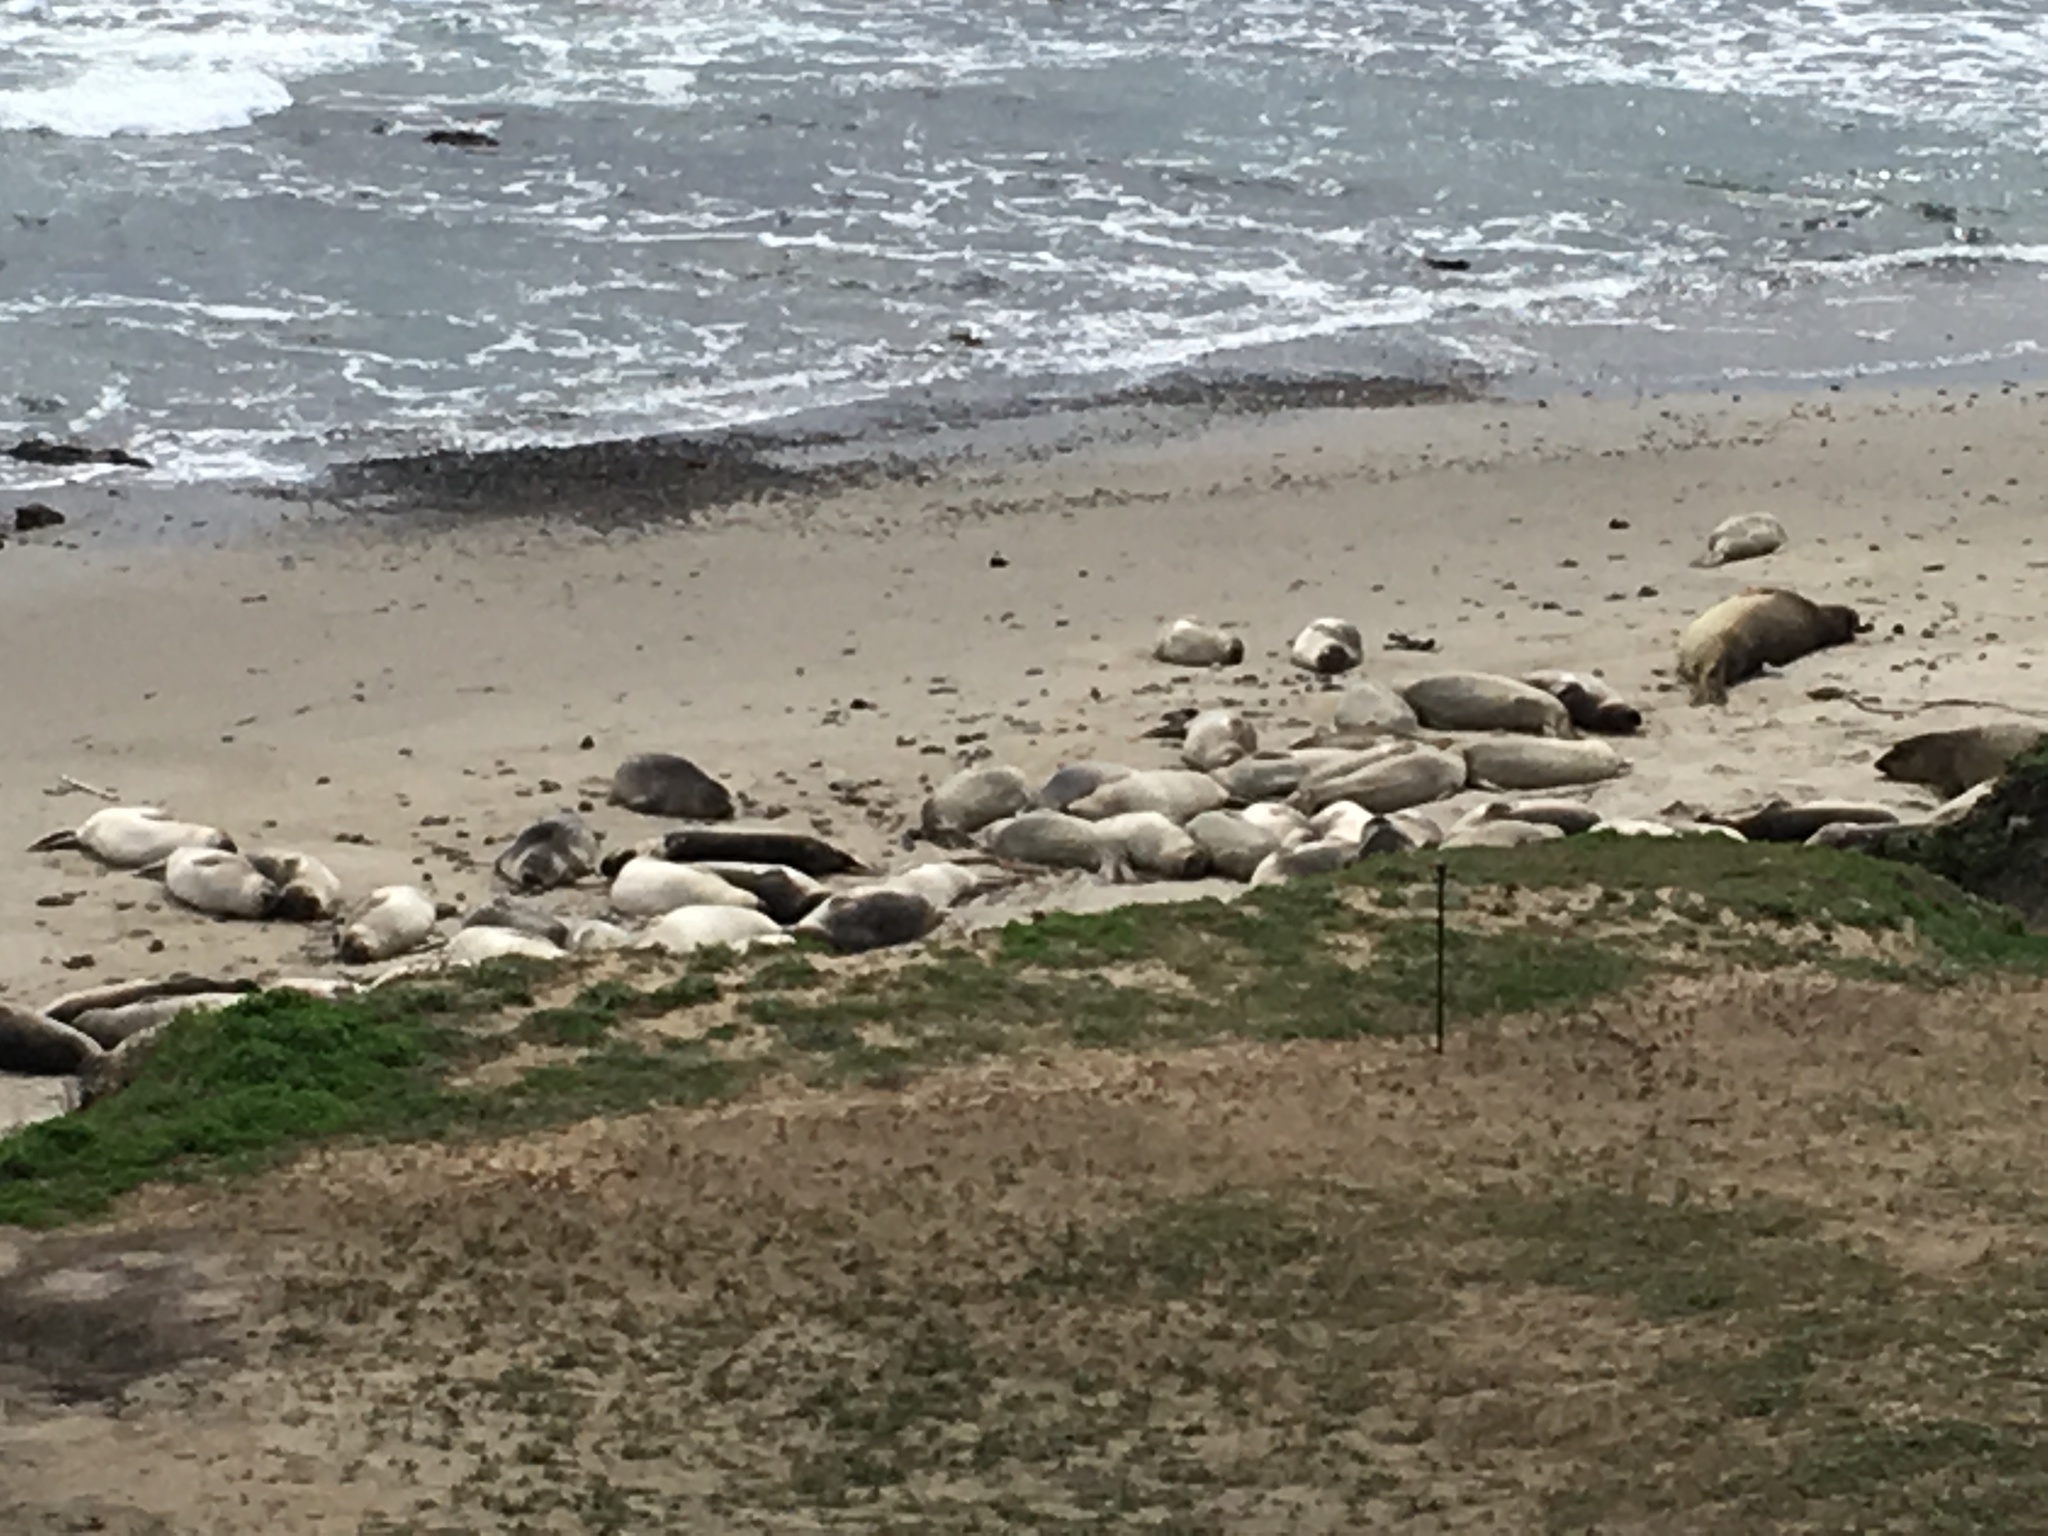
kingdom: Animalia
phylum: Chordata
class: Mammalia
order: Carnivora
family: Phocidae
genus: Mirounga
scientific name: Mirounga angustirostris
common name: Northern elephant seal
